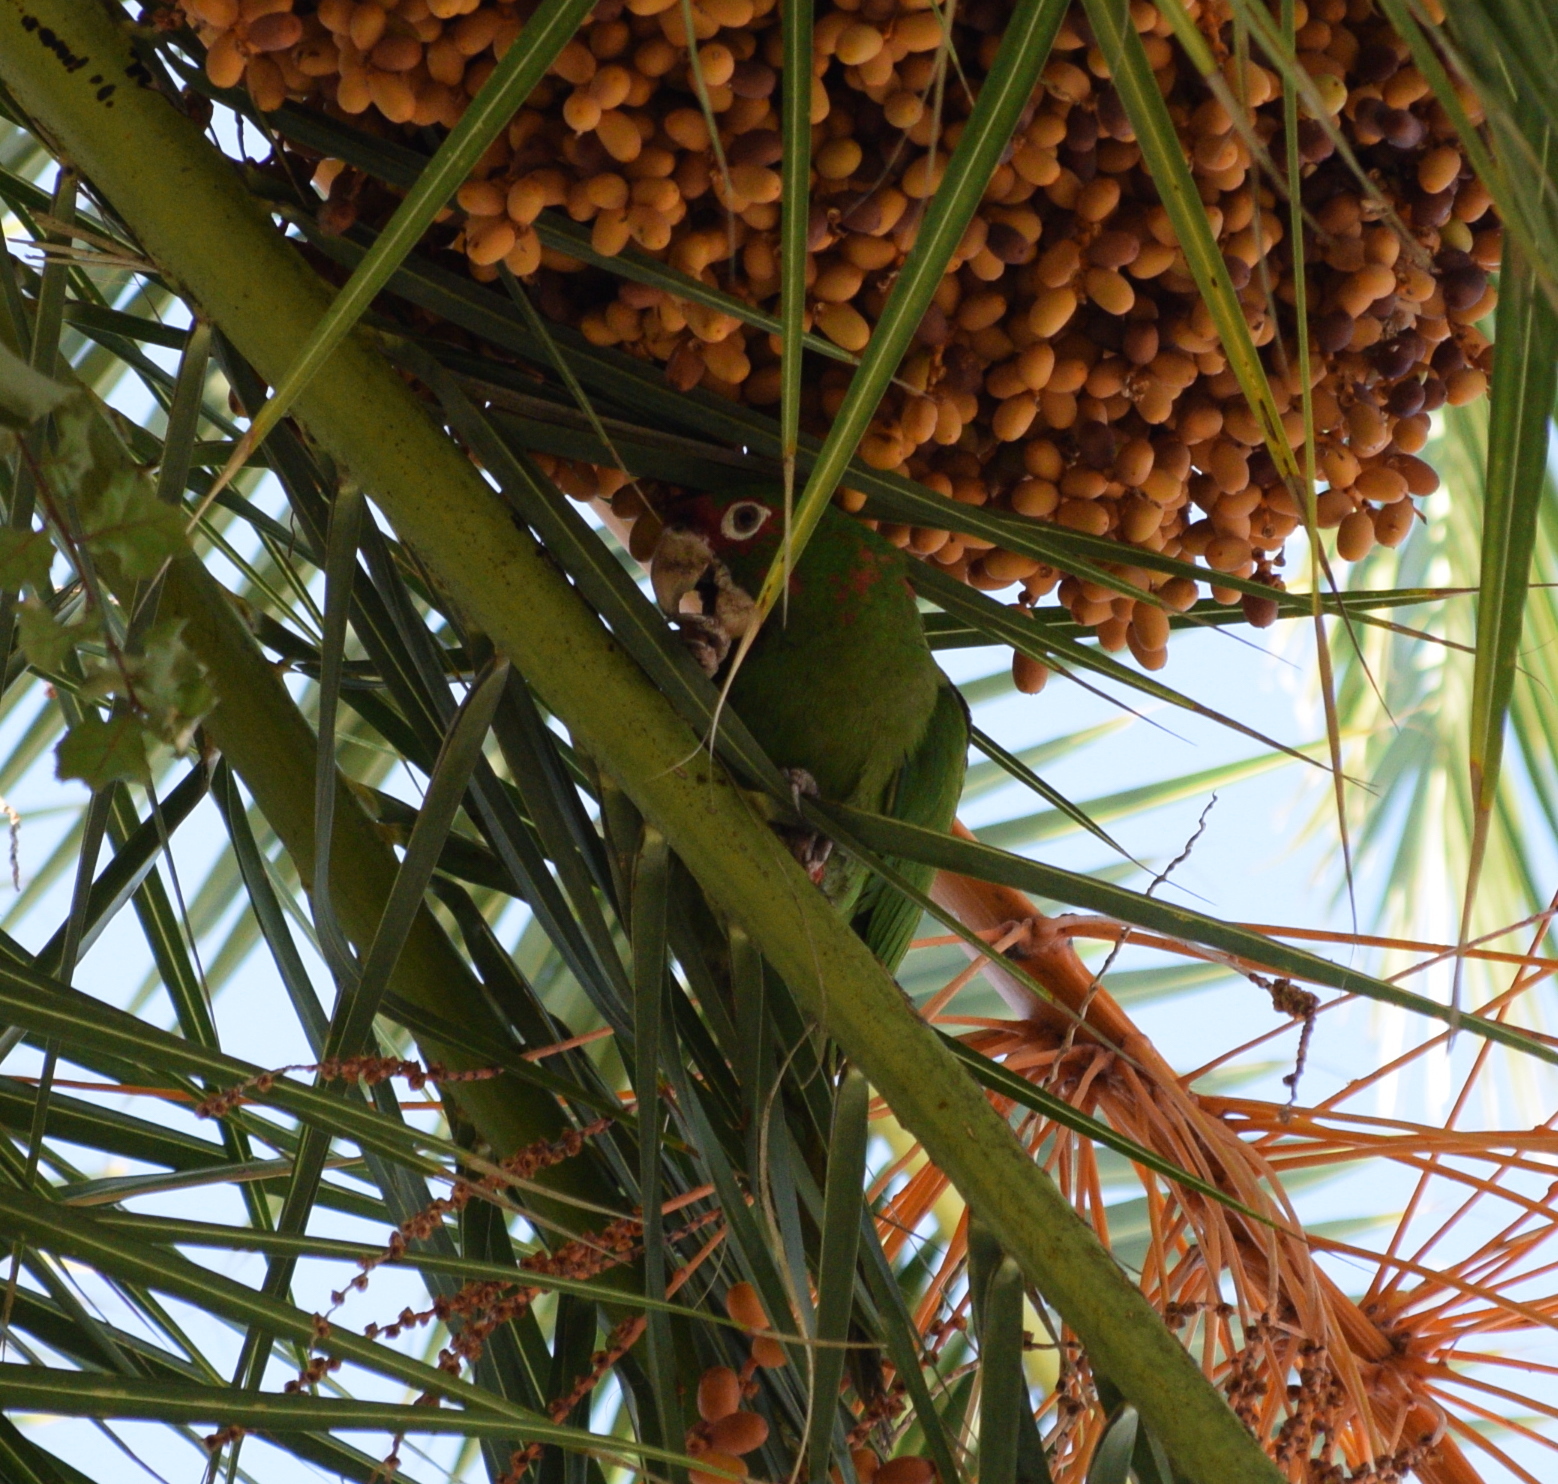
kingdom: Animalia
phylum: Chordata
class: Aves
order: Psittaciformes
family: Psittacidae
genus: Aratinga
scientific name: Aratinga mitrata
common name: Mitred parakeet
